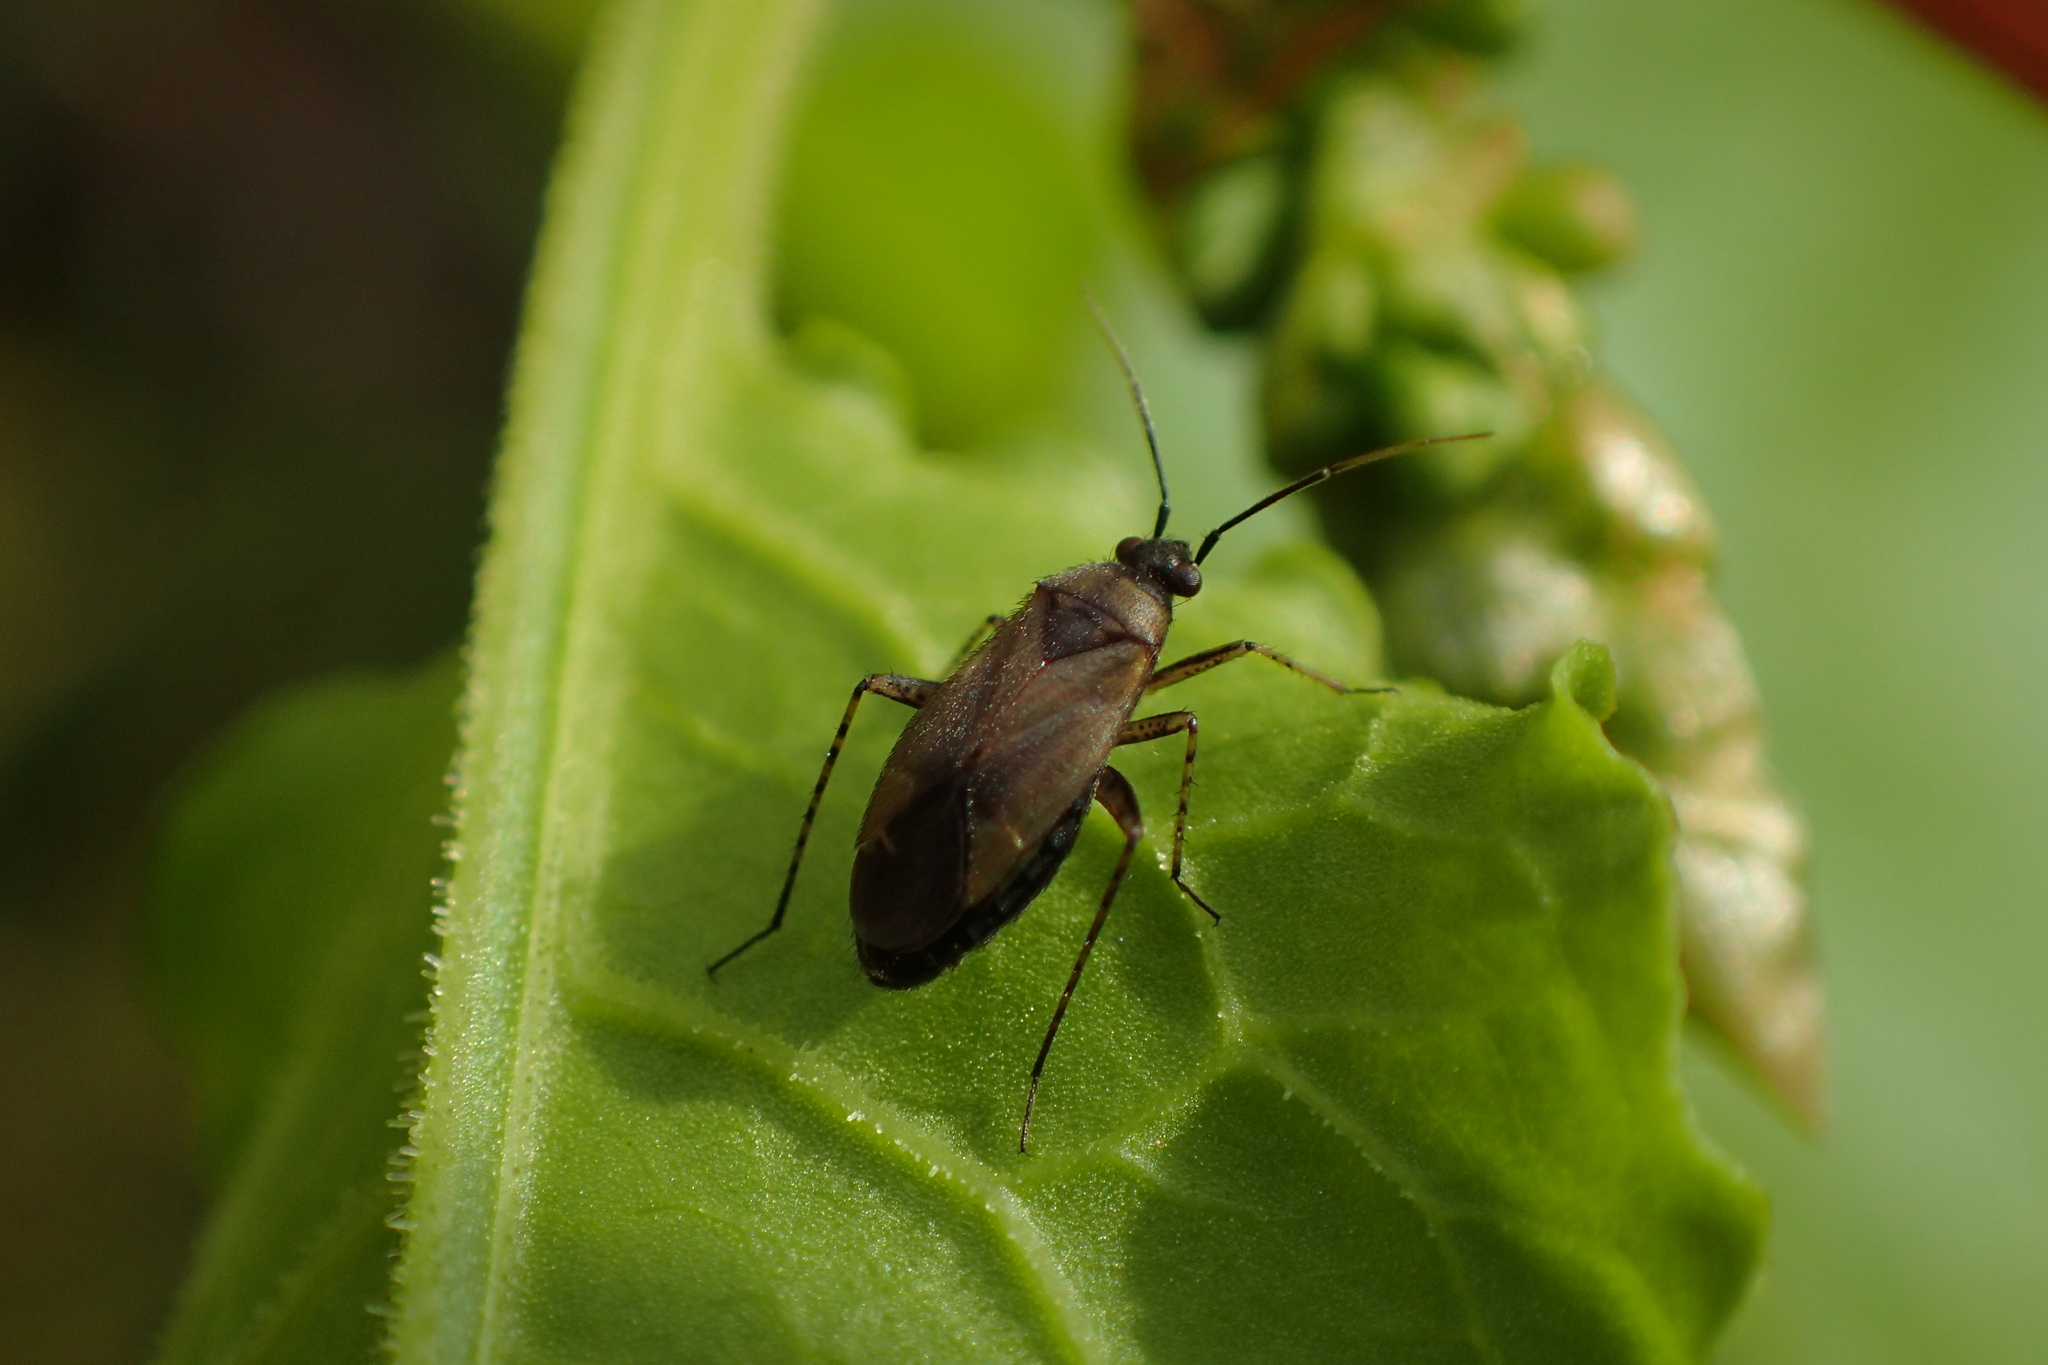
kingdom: Animalia
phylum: Arthropoda
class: Insecta
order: Hemiptera
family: Miridae
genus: Plagiognathus
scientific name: Plagiognathus arbustorum
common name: Plant bug
